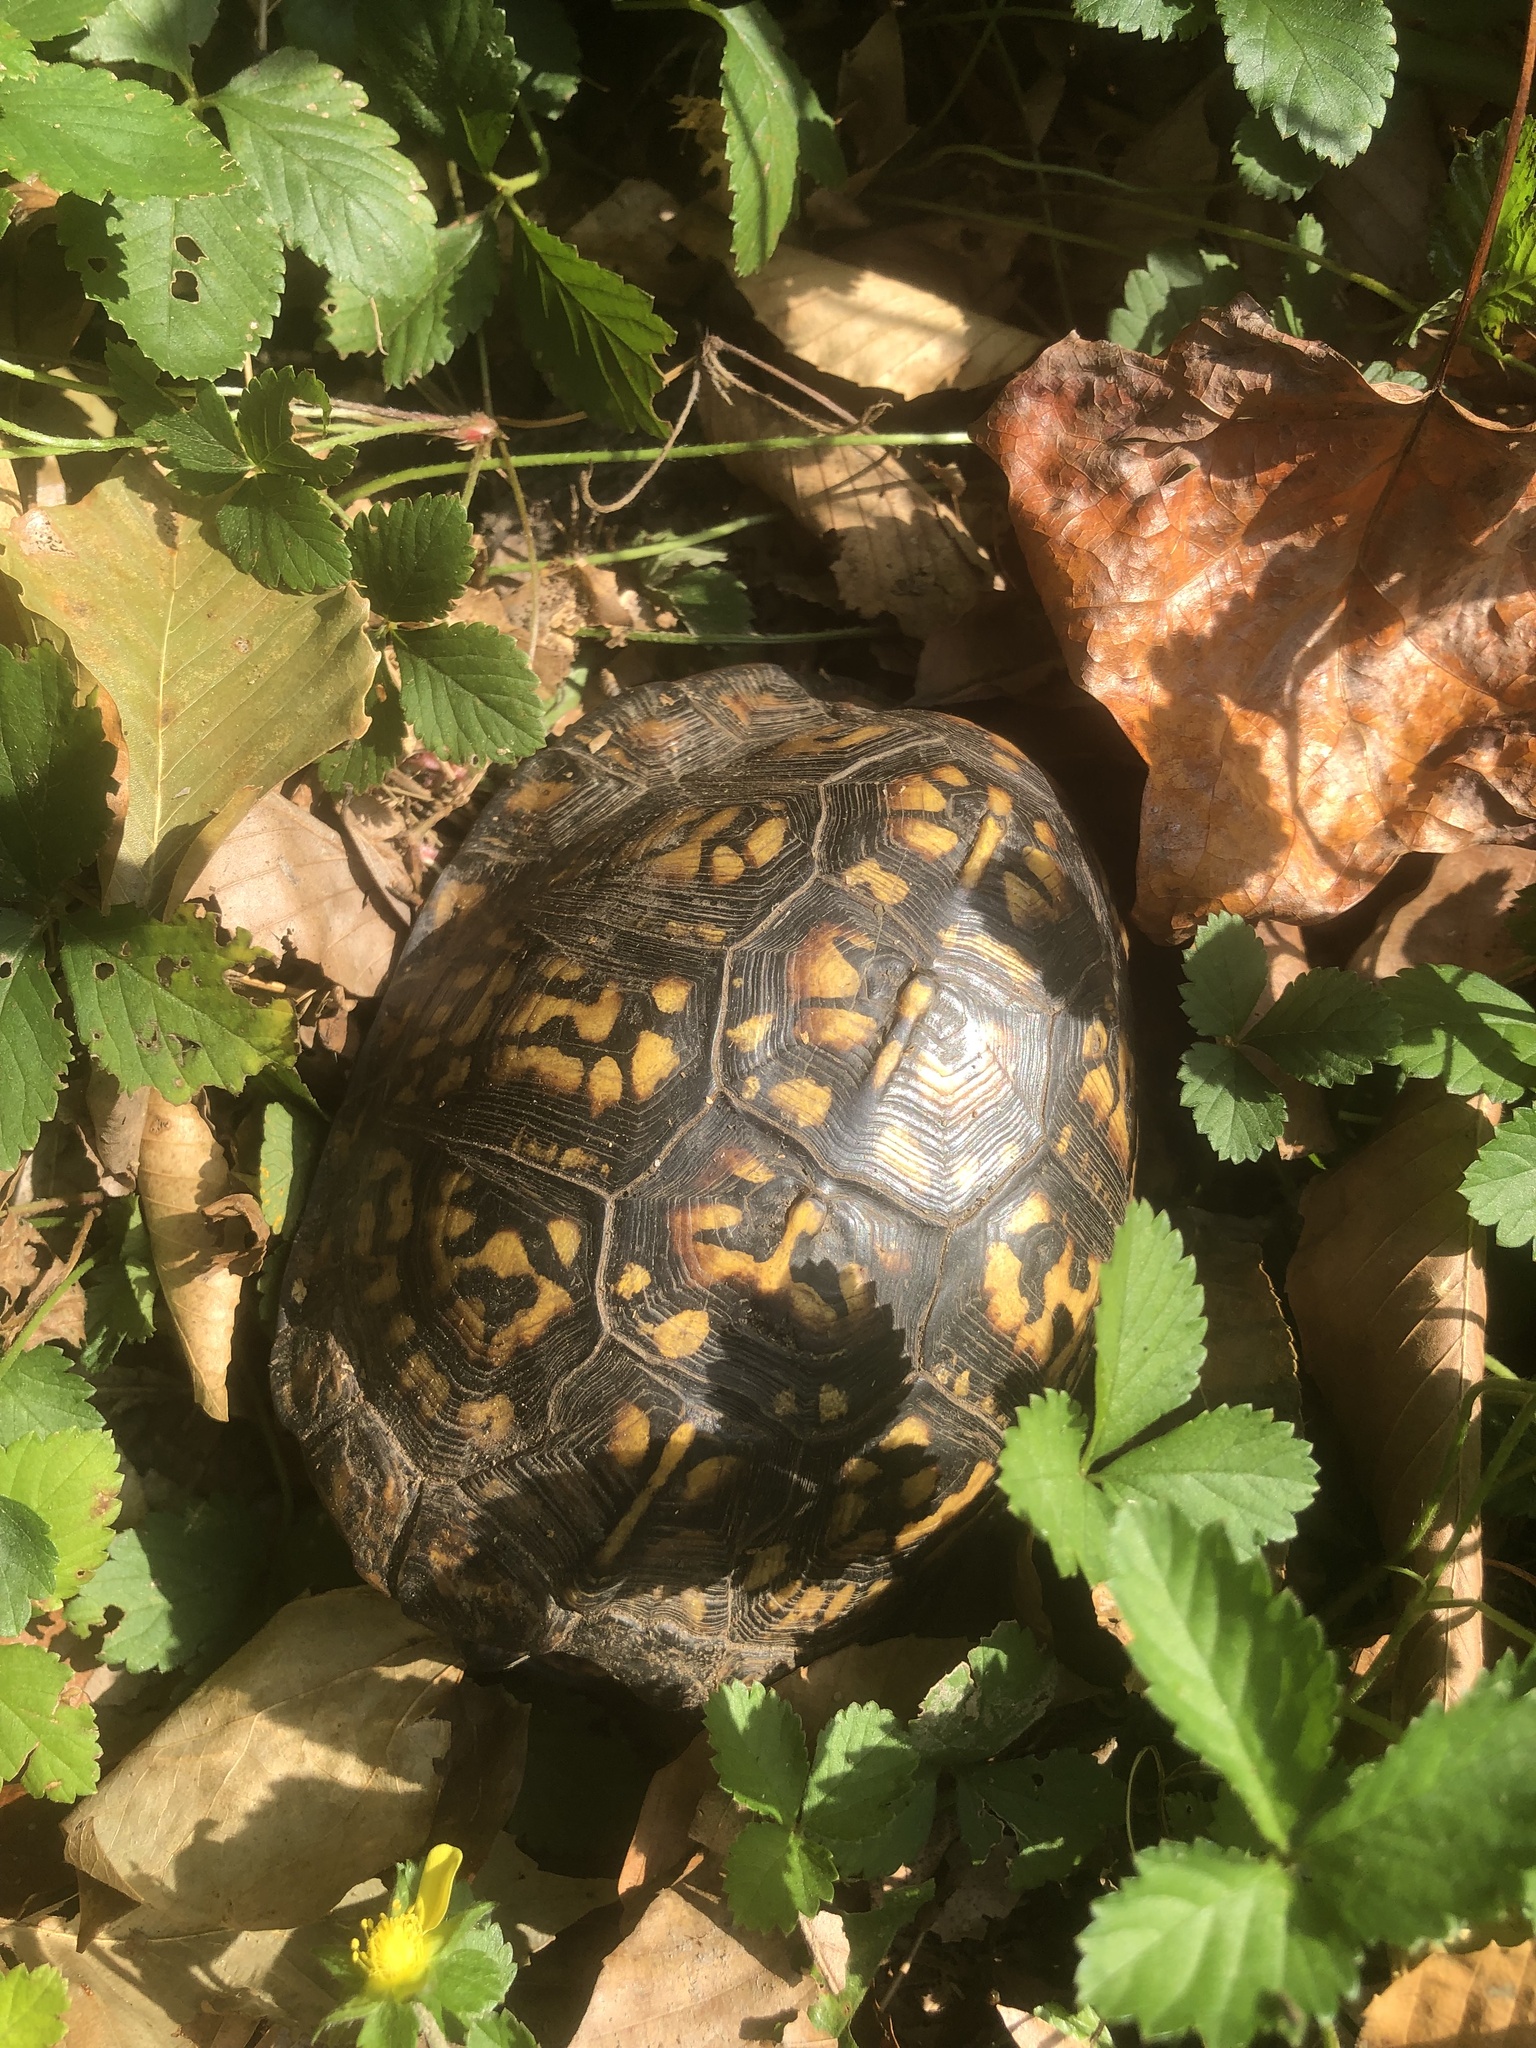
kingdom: Animalia
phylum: Chordata
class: Testudines
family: Emydidae
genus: Terrapene
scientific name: Terrapene carolina
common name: Common box turtle
